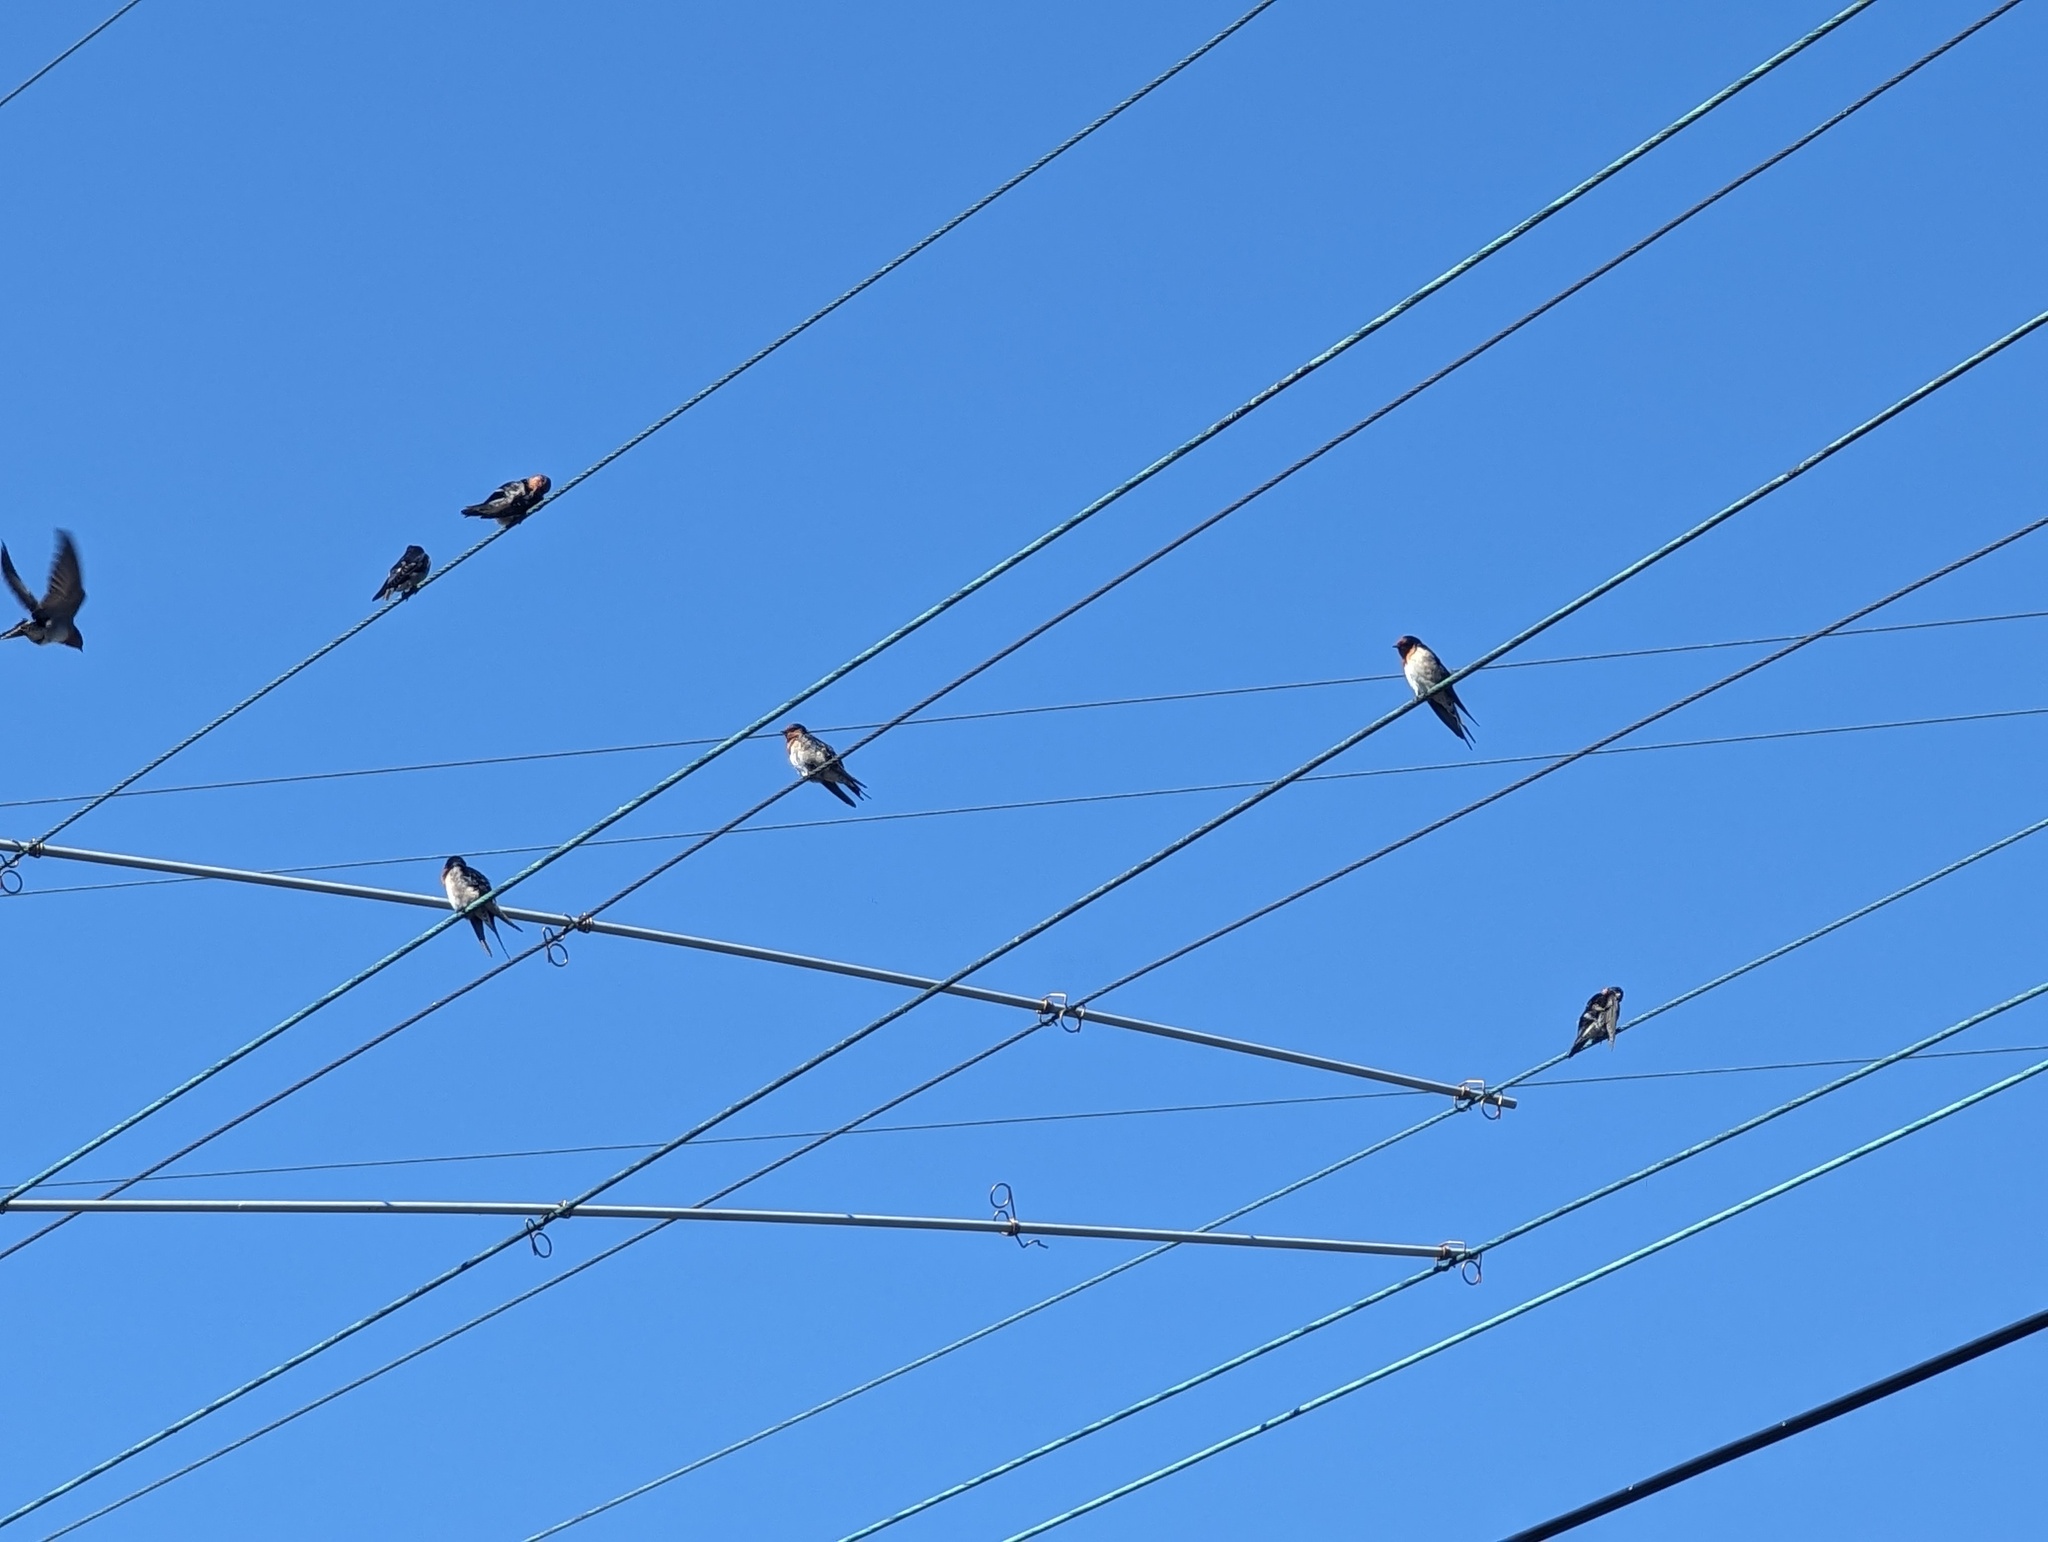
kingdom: Animalia
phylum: Chordata
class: Aves
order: Passeriformes
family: Hirundinidae
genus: Hirundo
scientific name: Hirundo neoxena
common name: Welcome swallow
